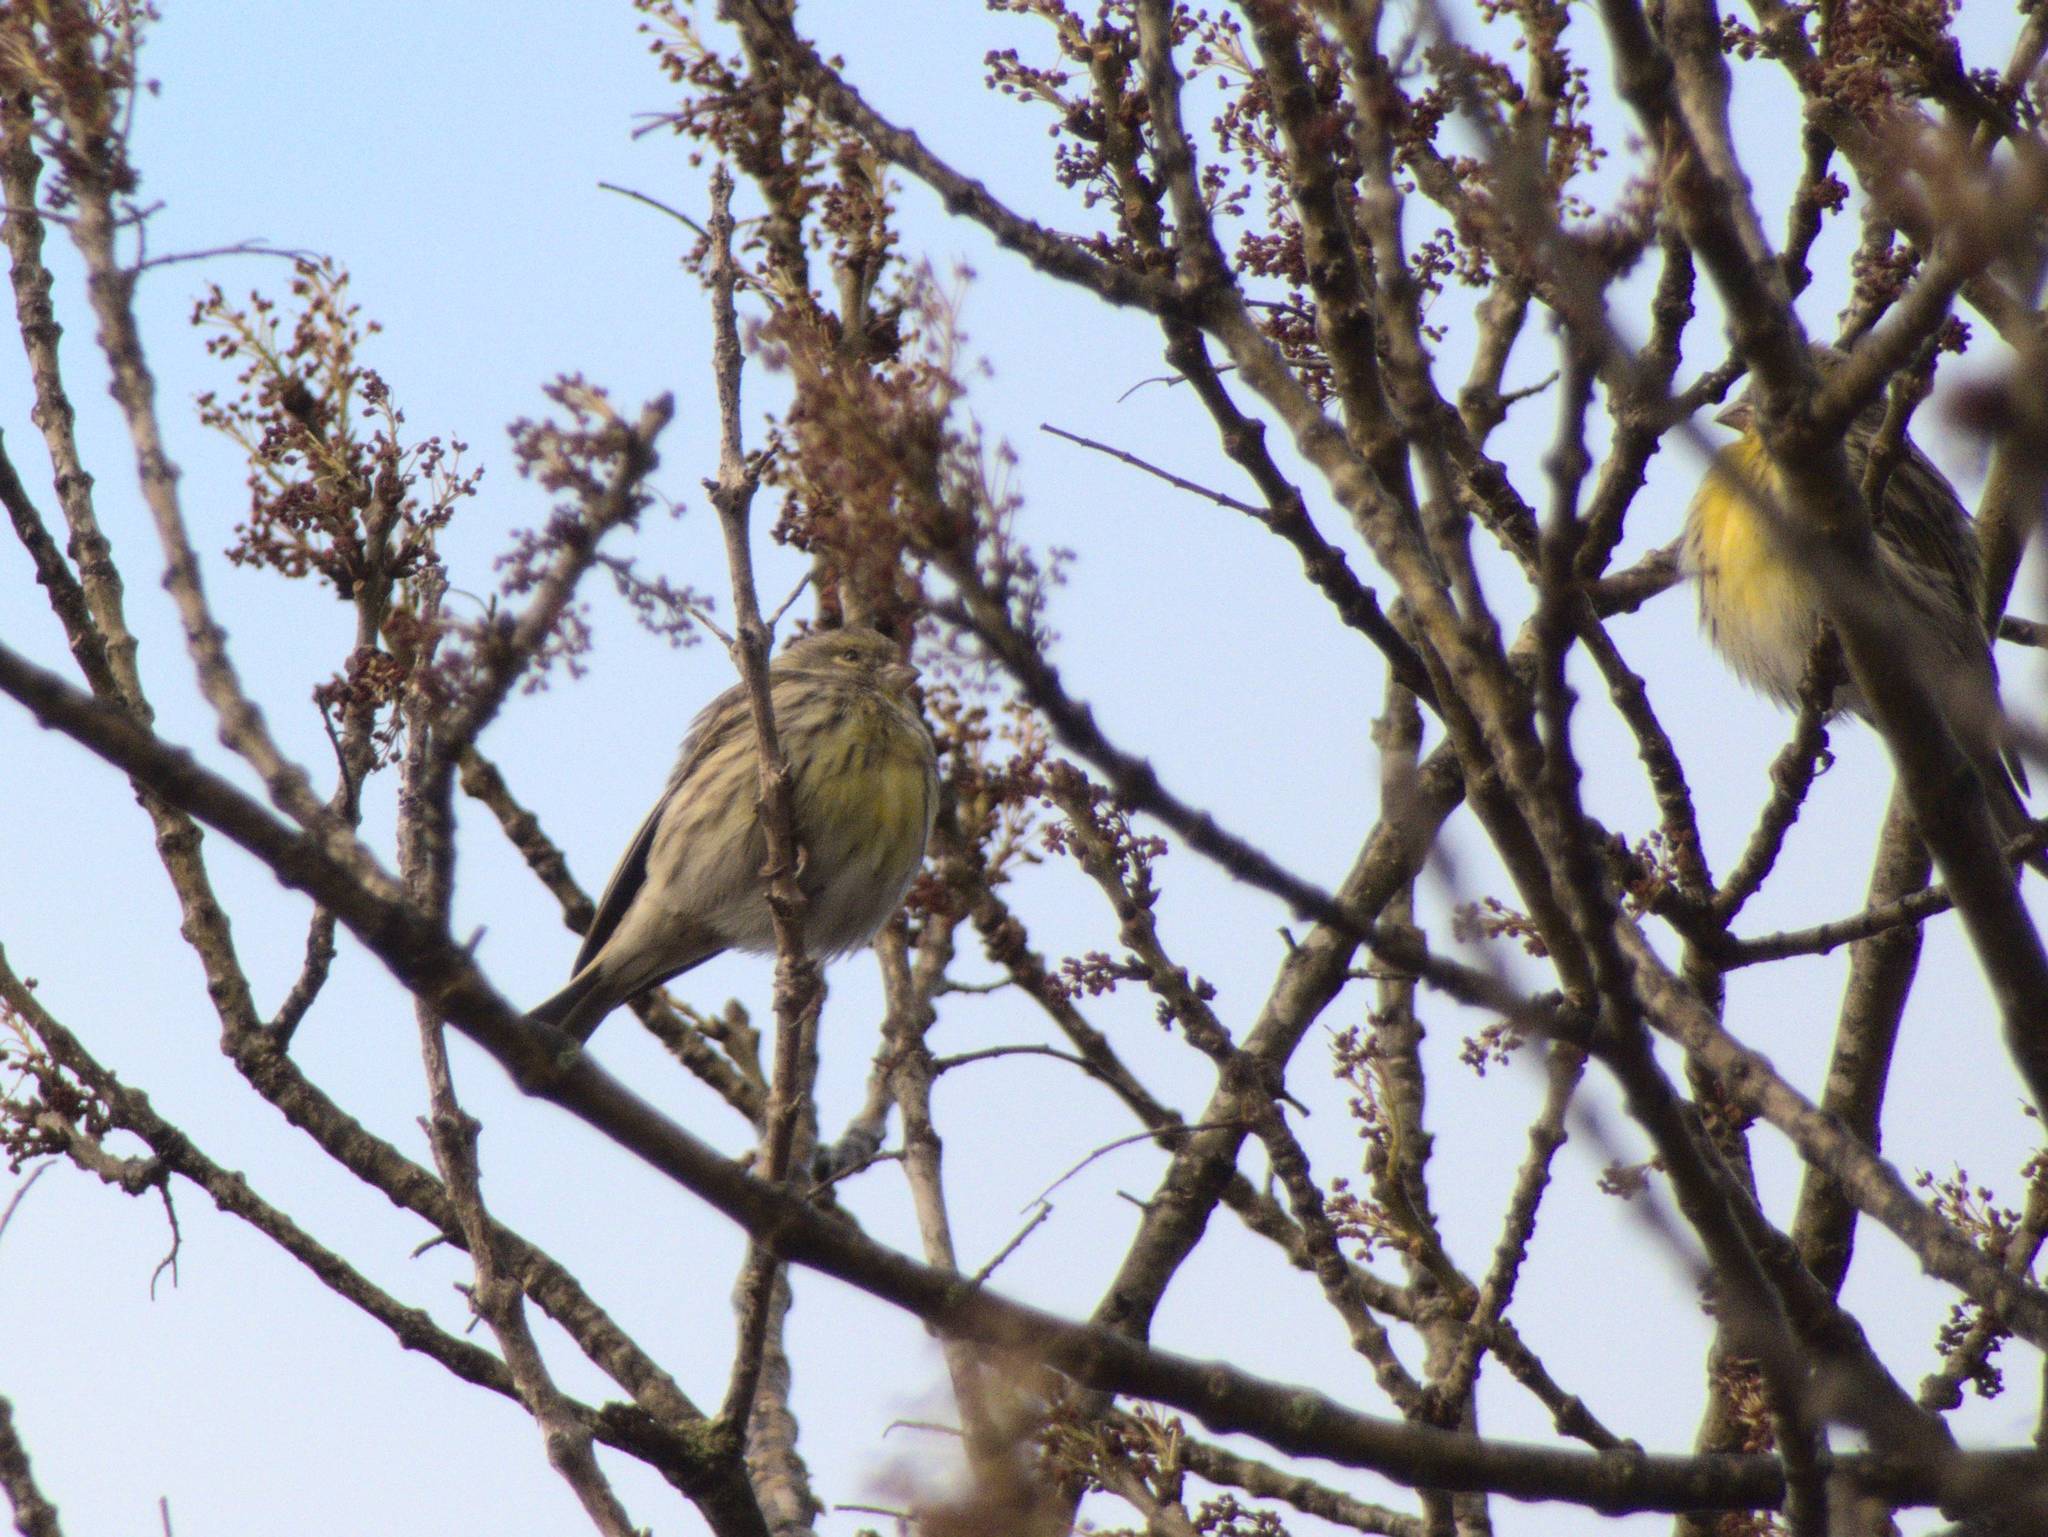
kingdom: Animalia
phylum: Chordata
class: Aves
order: Passeriformes
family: Fringillidae
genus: Serinus
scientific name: Serinus serinus
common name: European serin
